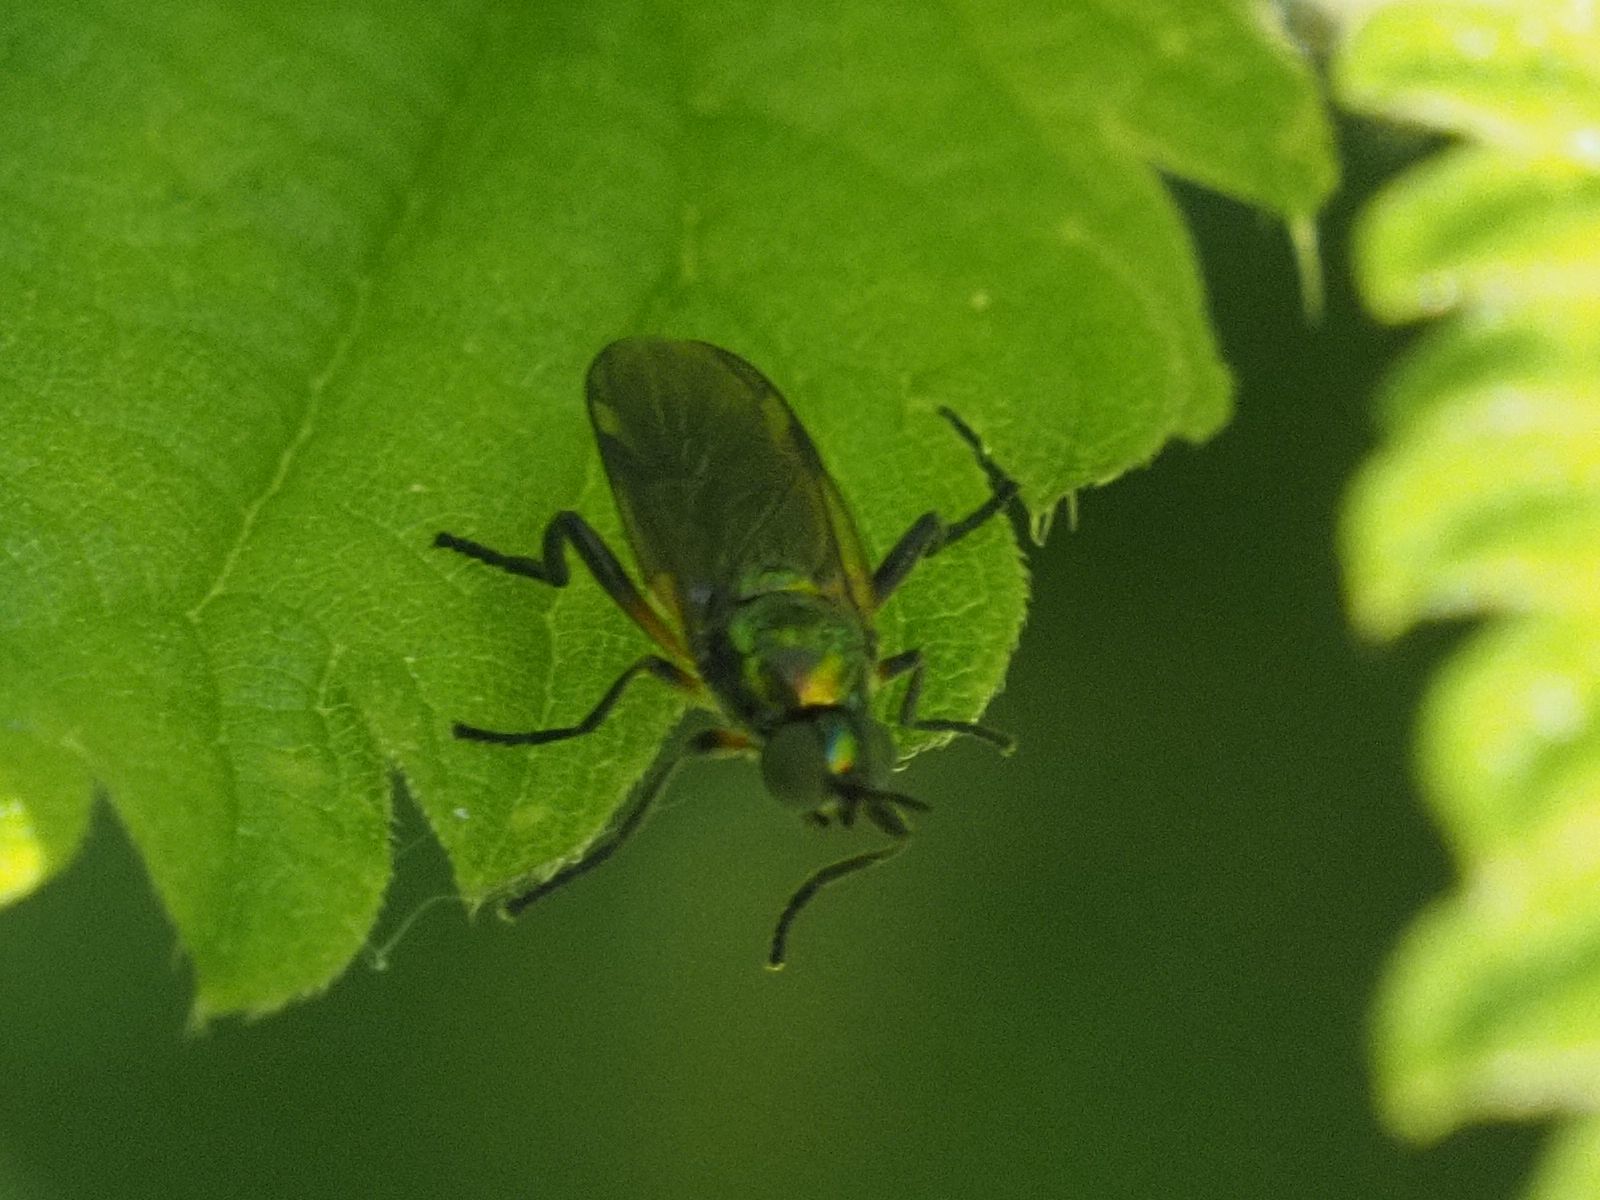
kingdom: Animalia
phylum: Arthropoda
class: Insecta
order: Diptera
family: Stratiomyidae
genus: Actina
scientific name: Actina chalybea
